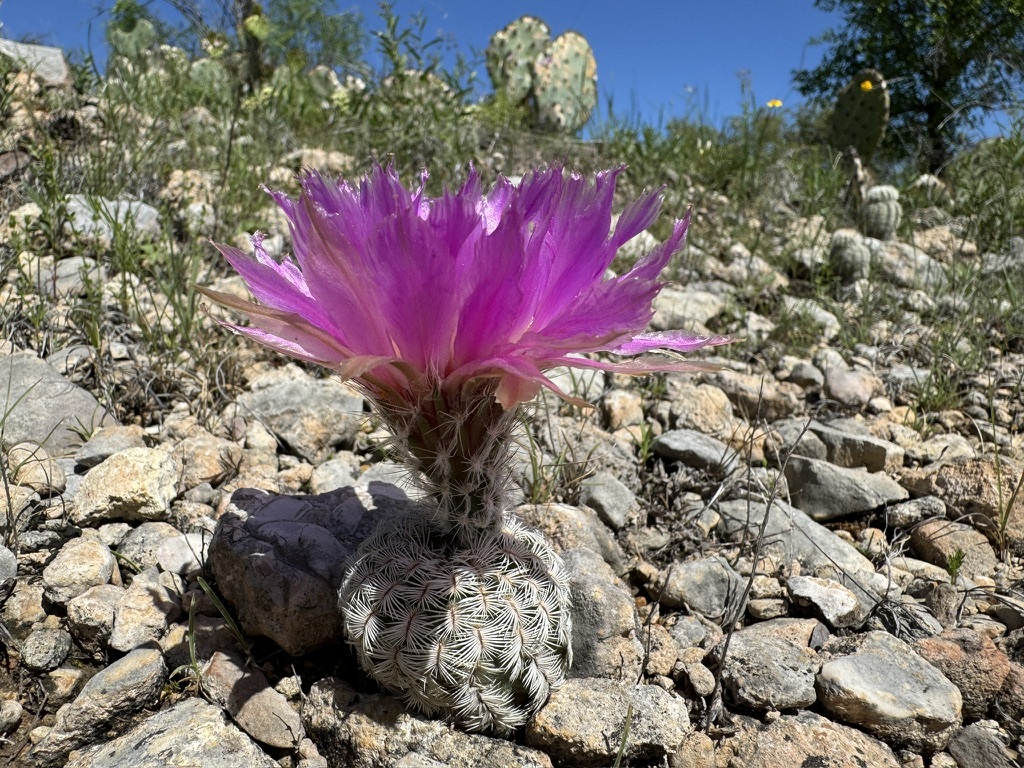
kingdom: Plantae
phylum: Tracheophyta
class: Magnoliopsida
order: Caryophyllales
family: Cactaceae
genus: Echinocereus
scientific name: Echinocereus reichenbachii
